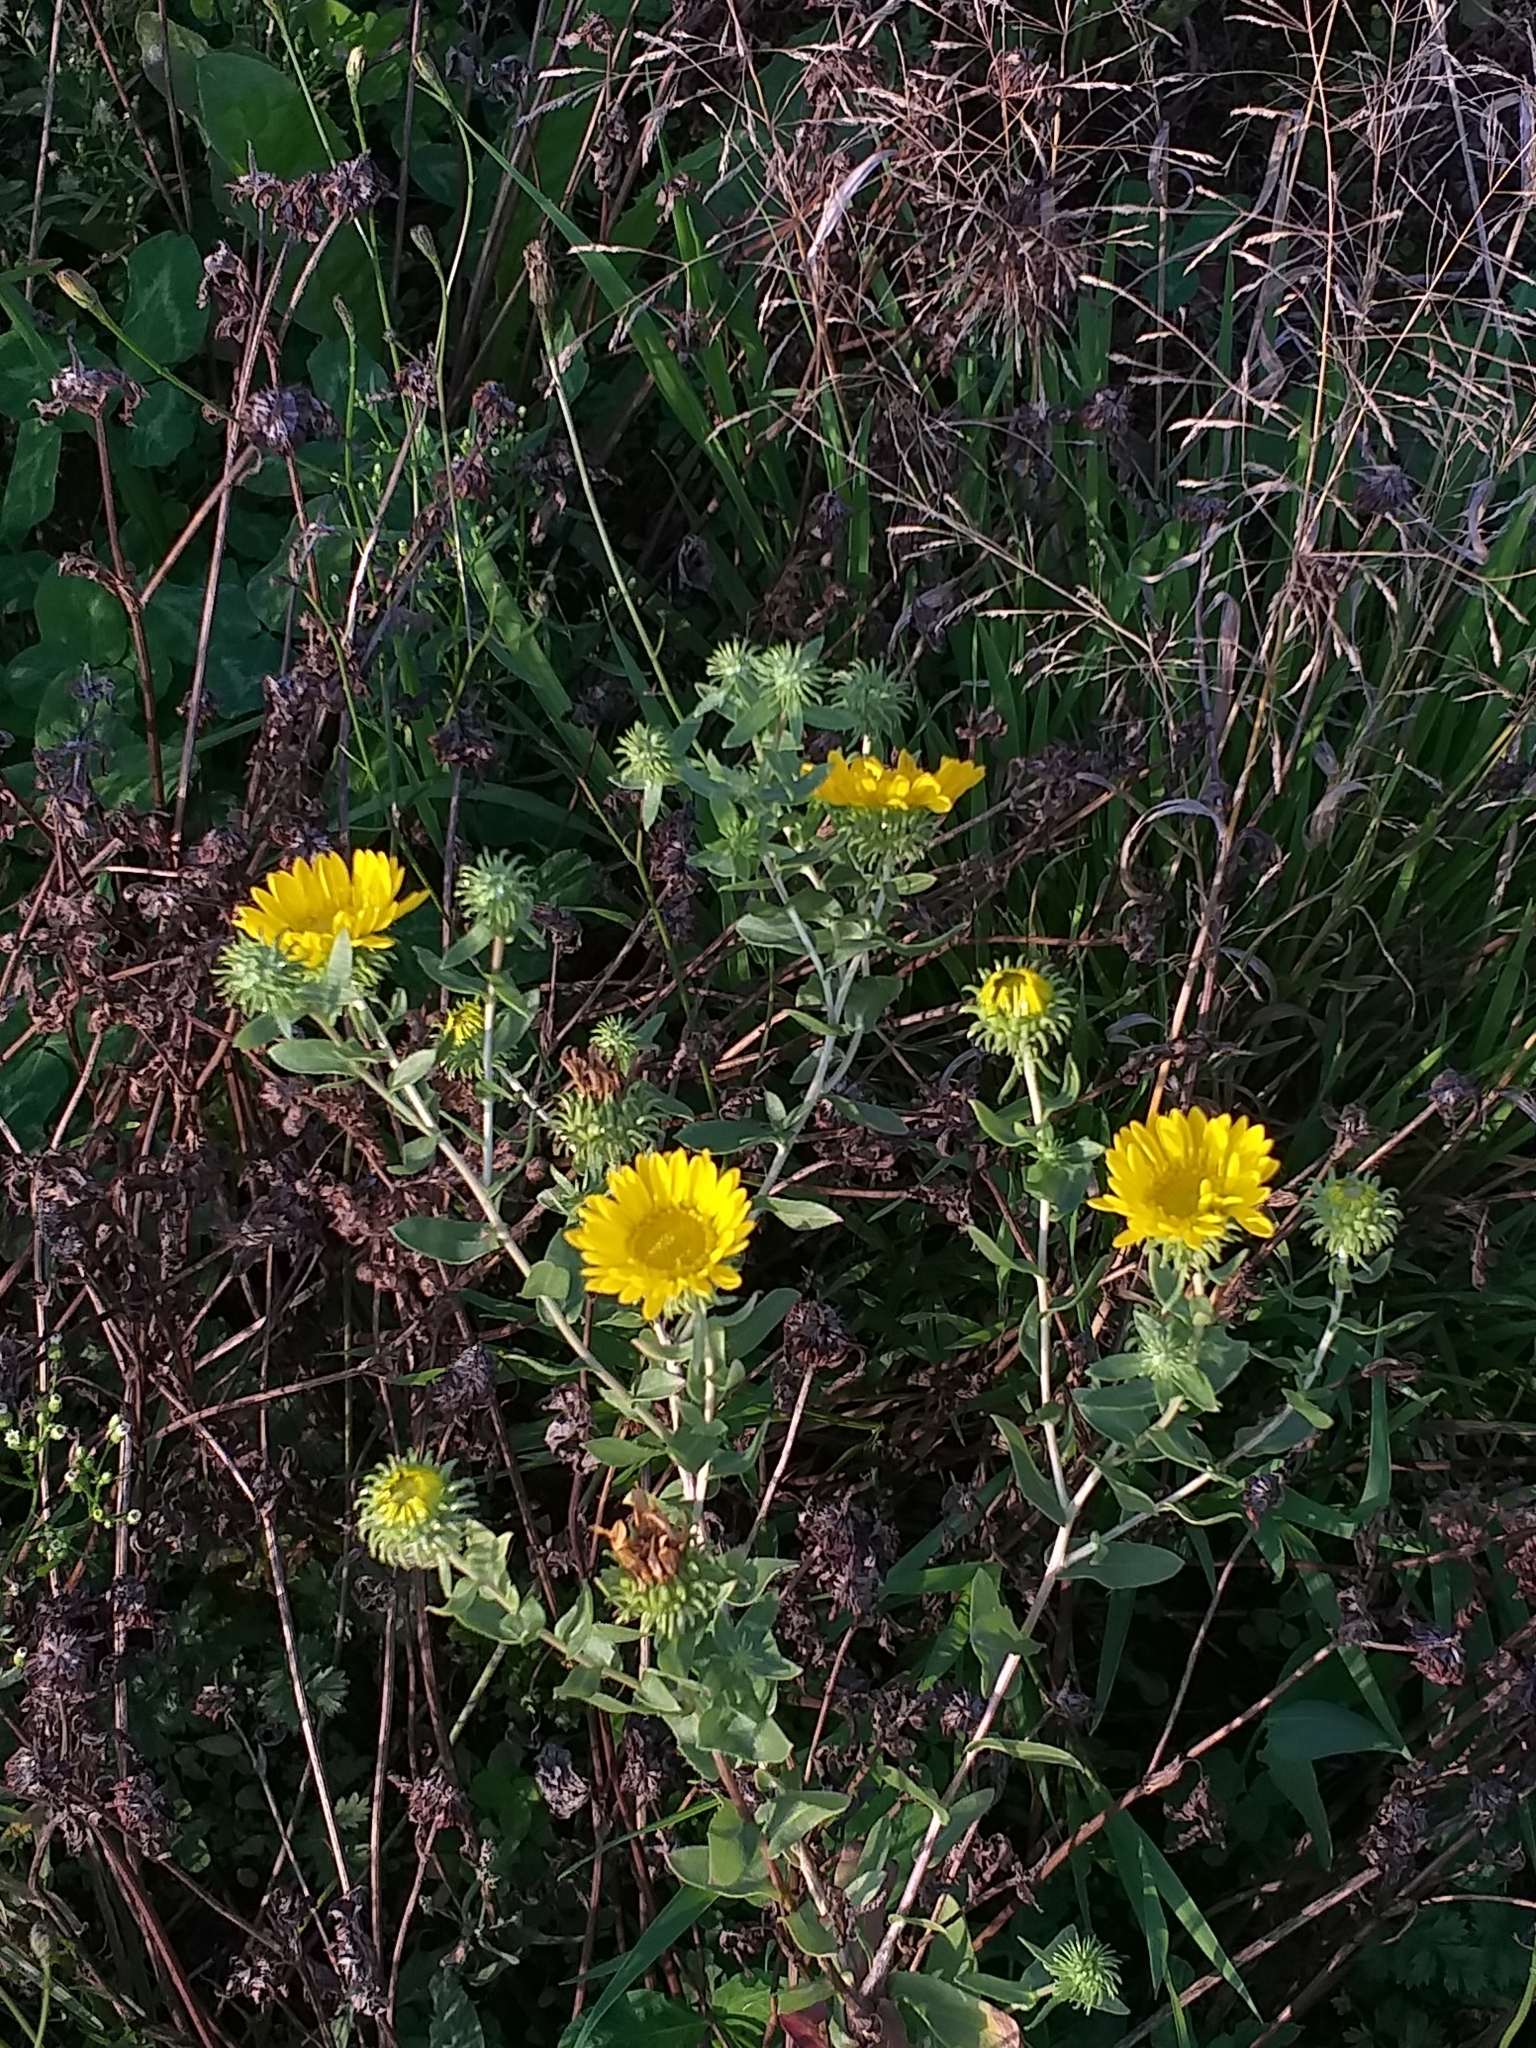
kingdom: Plantae
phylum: Tracheophyta
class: Magnoliopsida
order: Asterales
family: Asteraceae
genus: Grindelia
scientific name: Grindelia squarrosa
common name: Curly-cup gumweed
